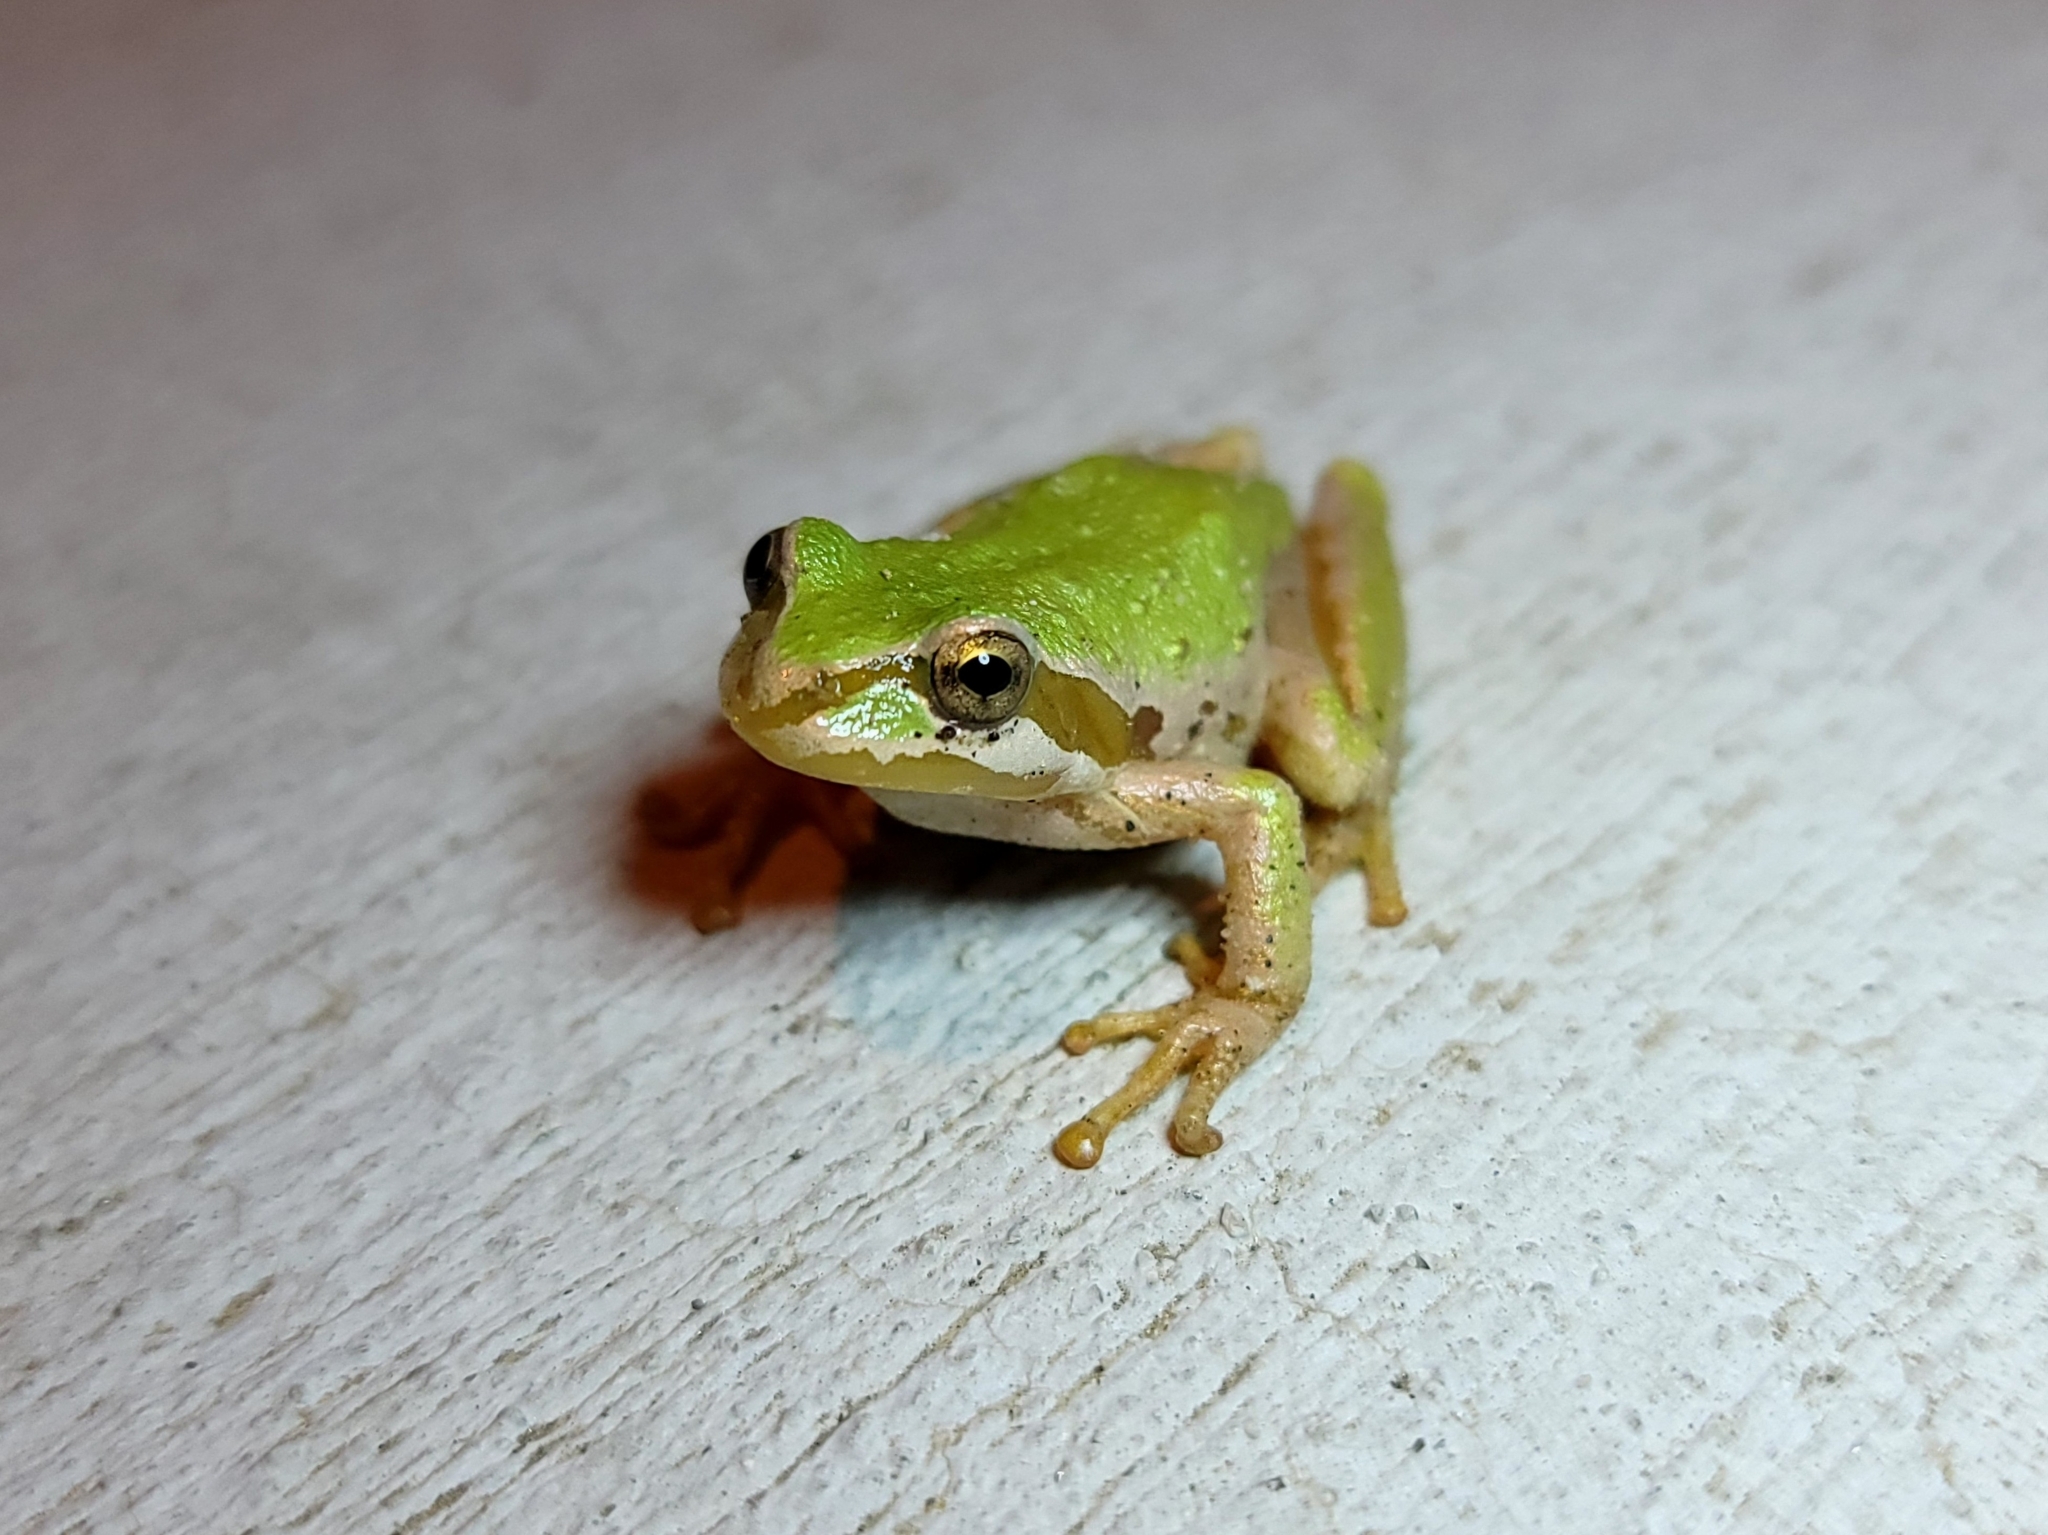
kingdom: Animalia
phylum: Chordata
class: Amphibia
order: Anura
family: Hylidae
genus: Pseudacris
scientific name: Pseudacris regilla
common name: Pacific chorus frog
